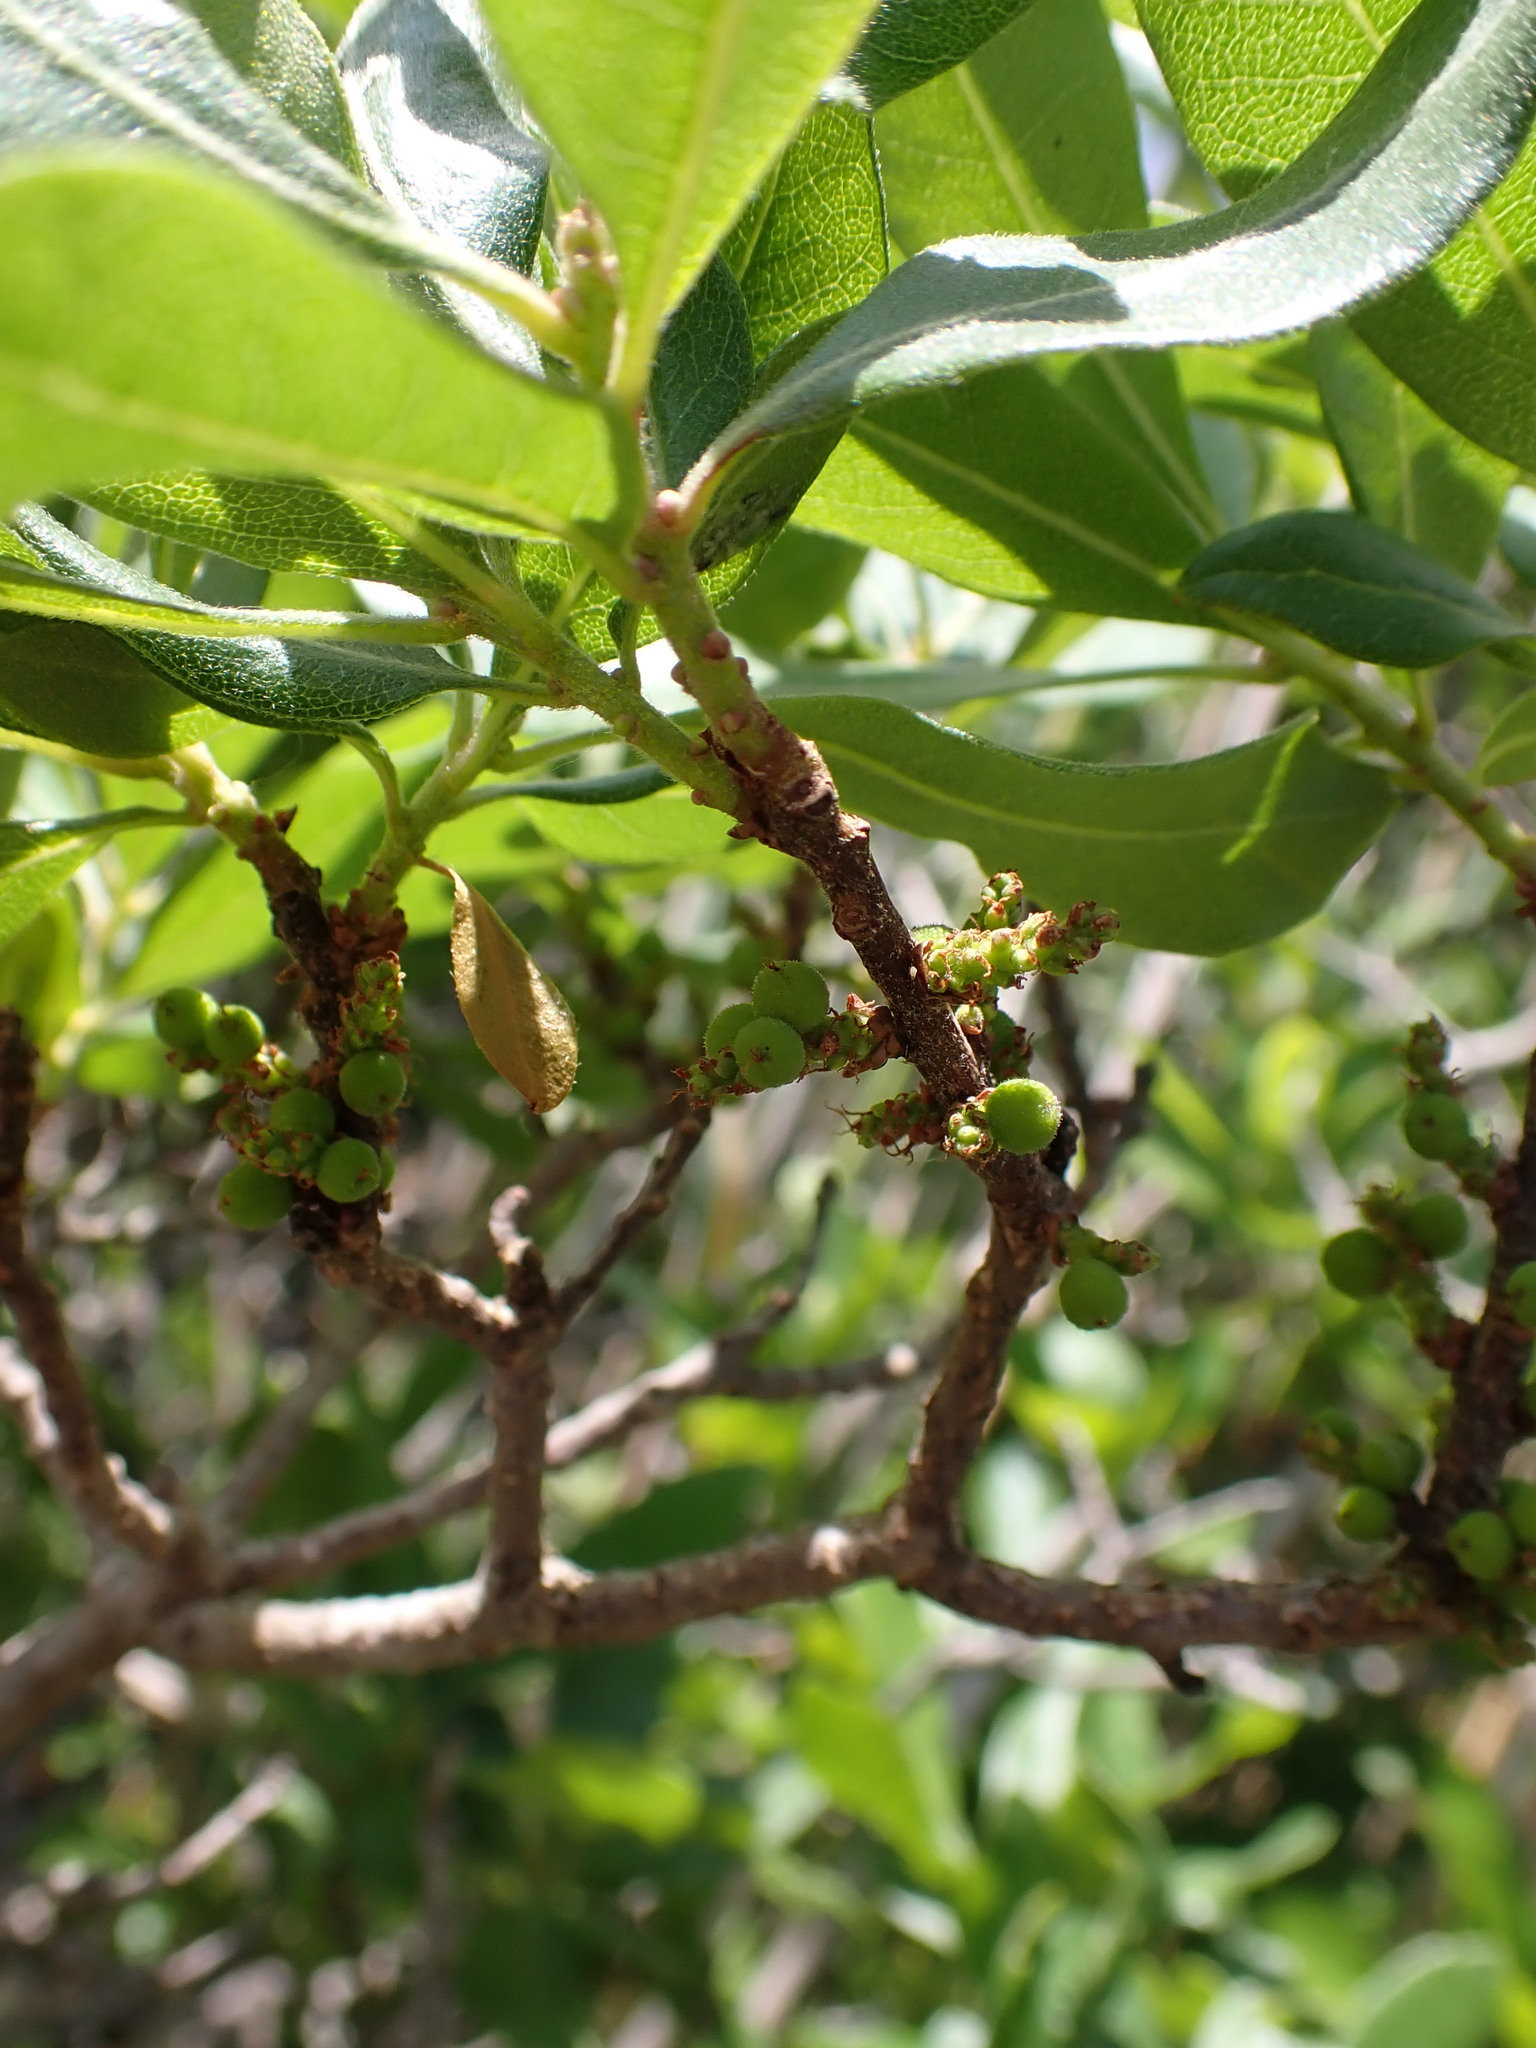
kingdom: Plantae
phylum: Tracheophyta
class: Magnoliopsida
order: Fagales
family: Myricaceae
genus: Morella
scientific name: Morella pensylvanica
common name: Northern bayberry
